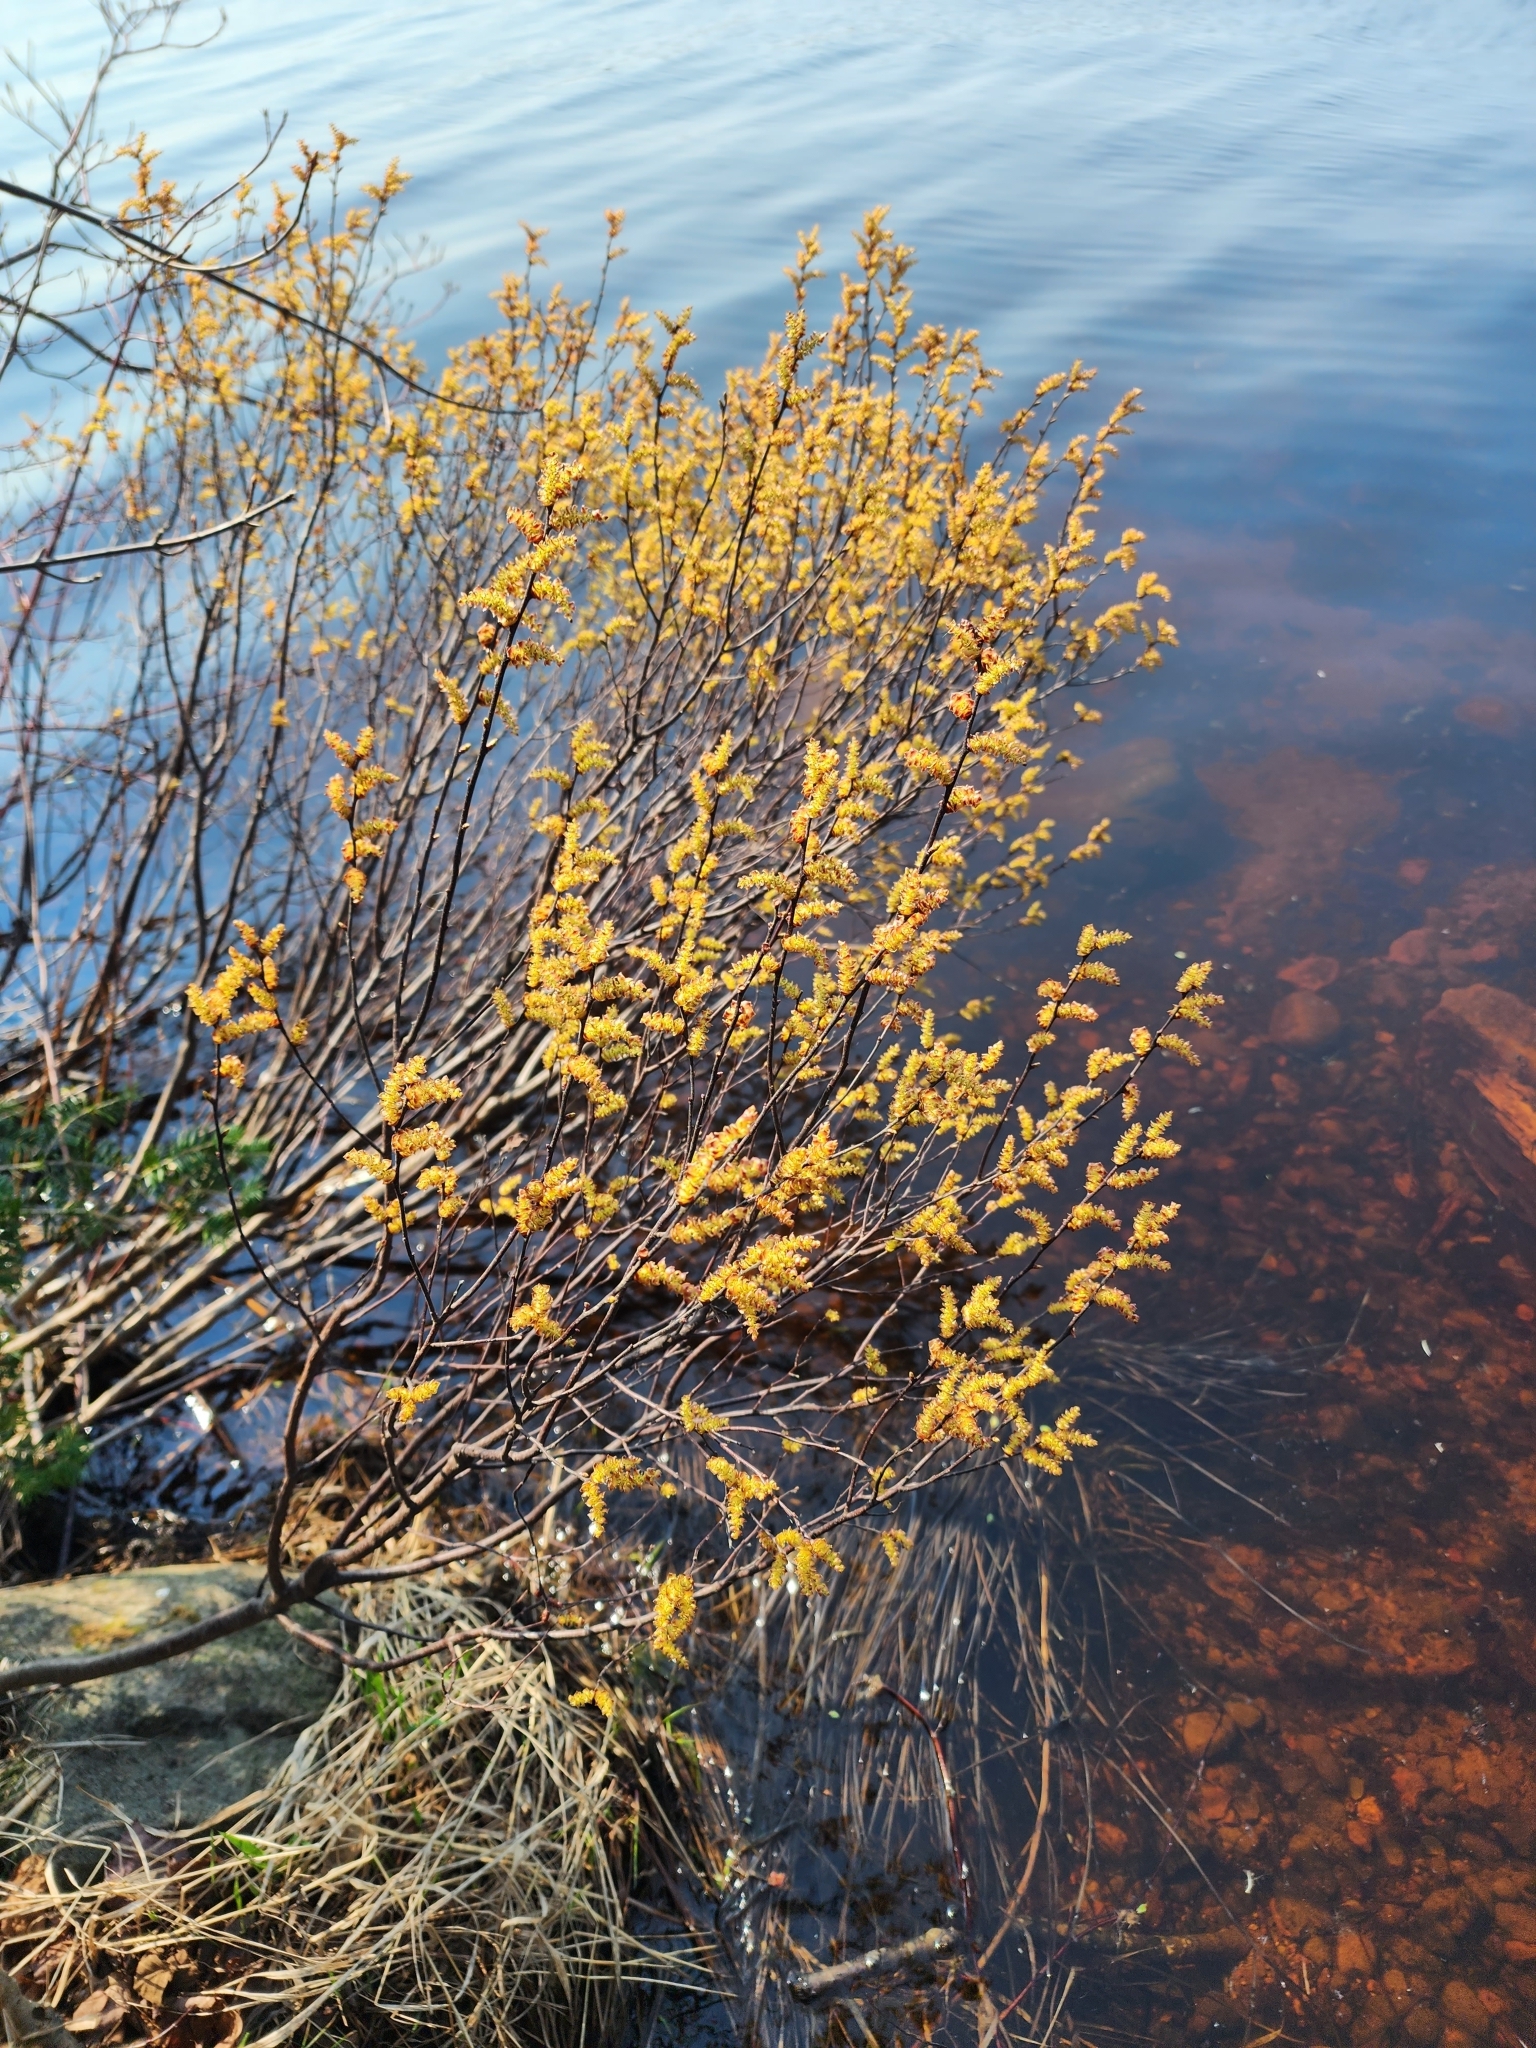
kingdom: Plantae
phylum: Tracheophyta
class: Magnoliopsida
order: Fagales
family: Myricaceae
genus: Myrica
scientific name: Myrica gale
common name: Sweet gale
